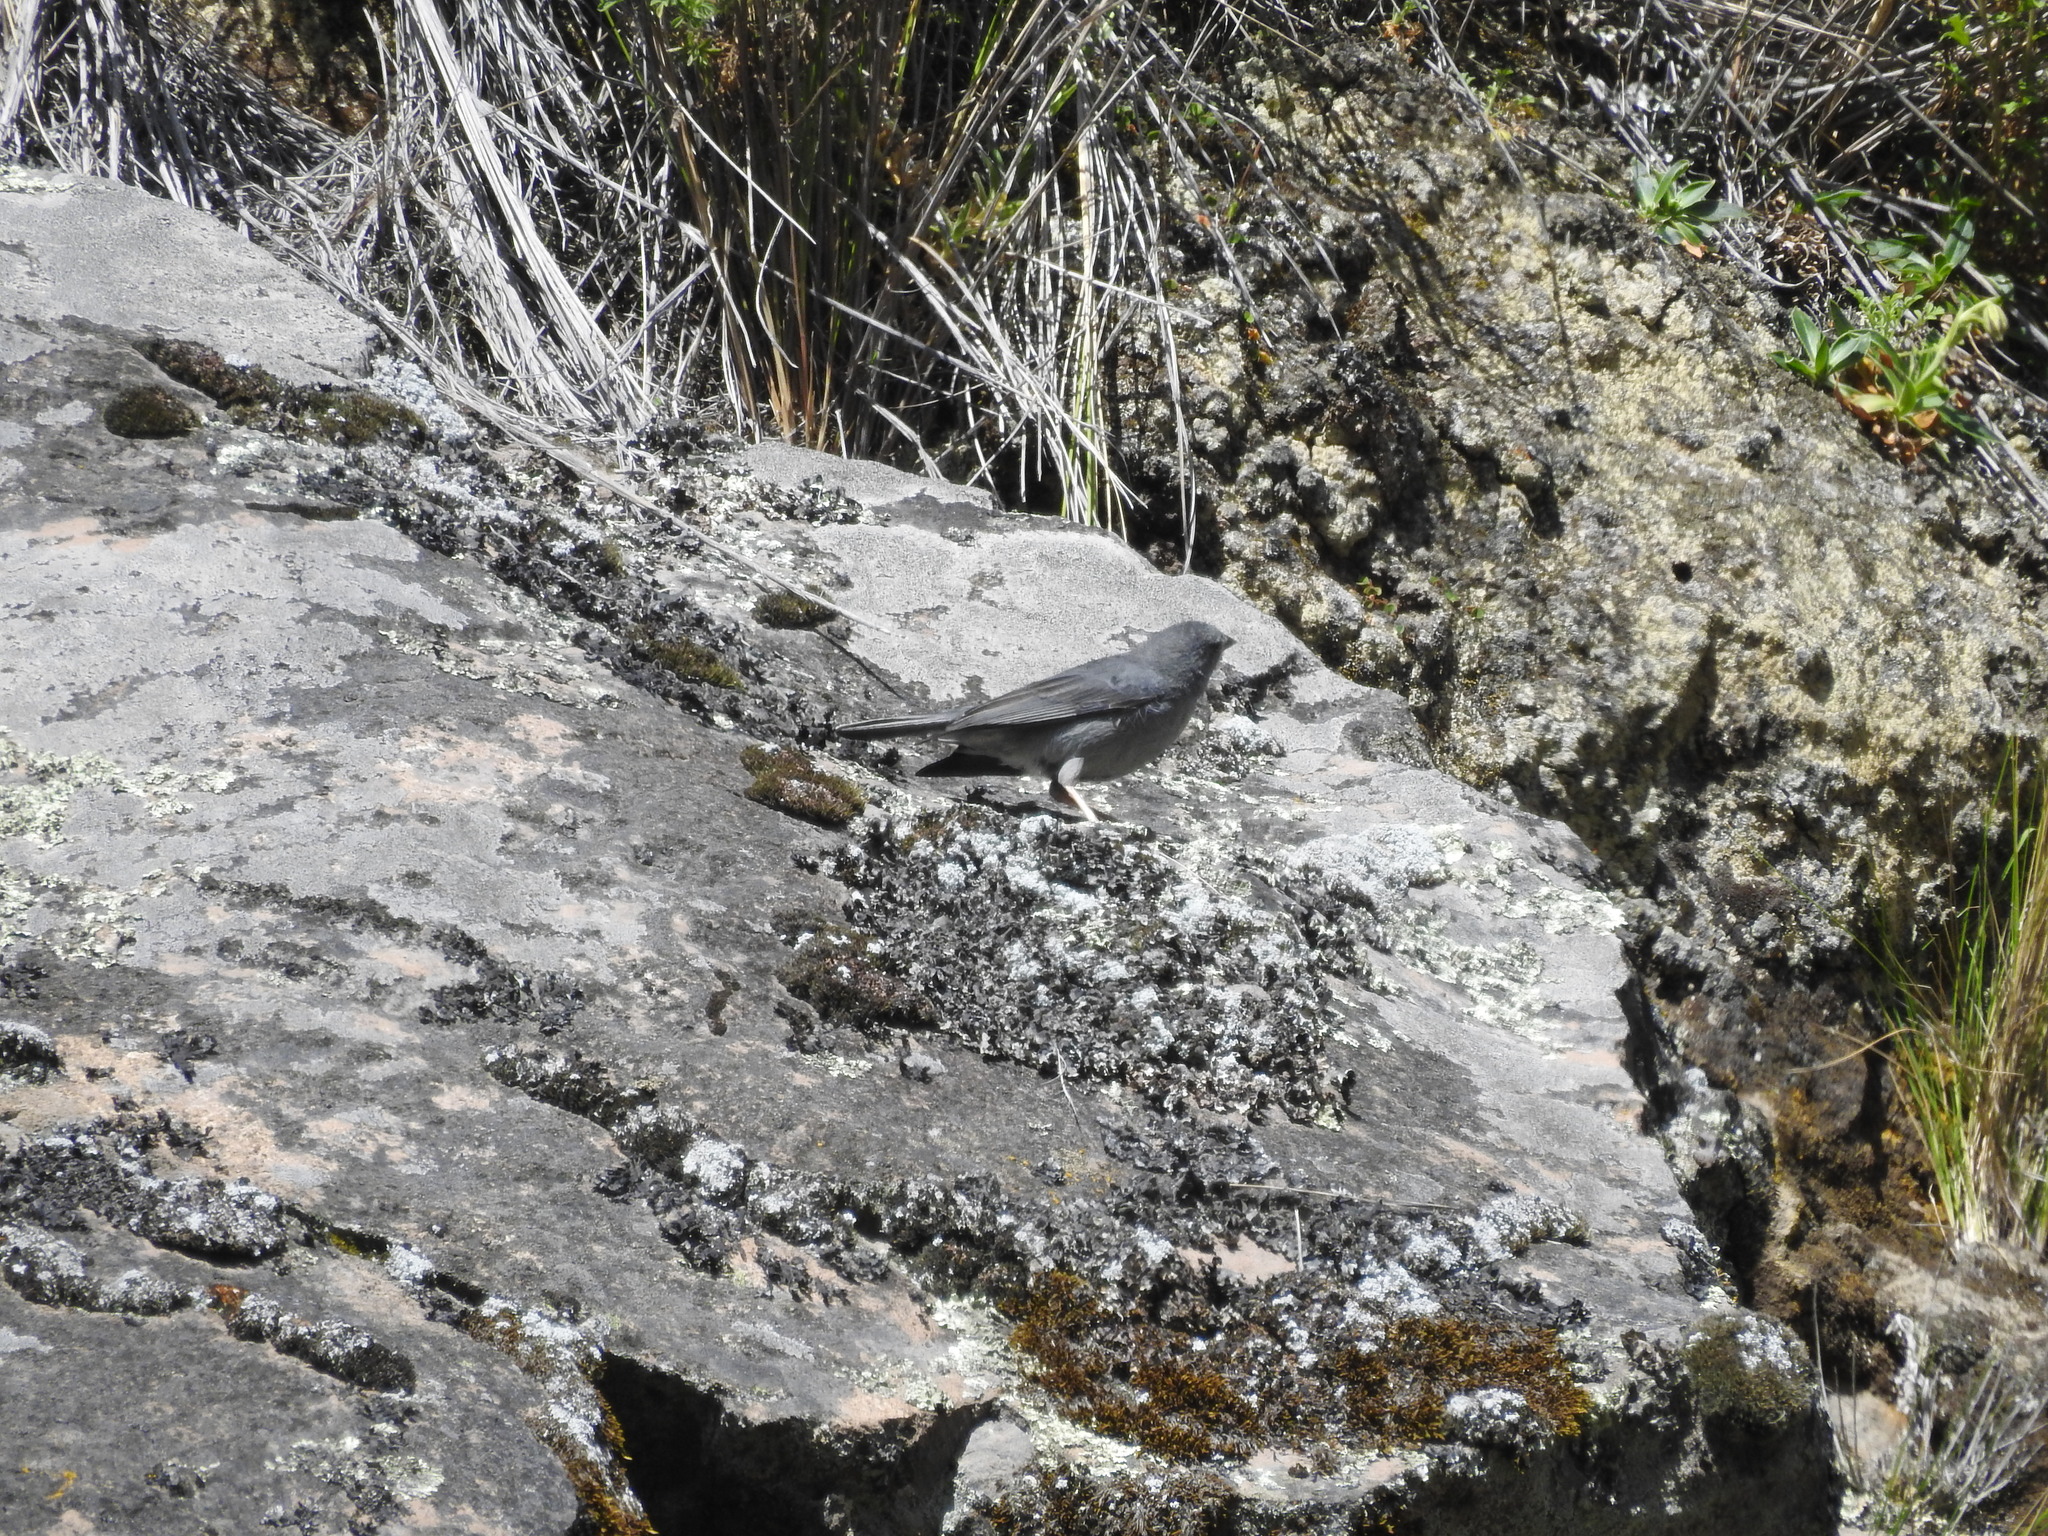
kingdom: Animalia
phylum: Chordata
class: Aves
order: Passeriformes
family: Thraupidae
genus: Geospizopsis
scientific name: Geospizopsis unicolor
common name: Plumbeous sierra-finch
